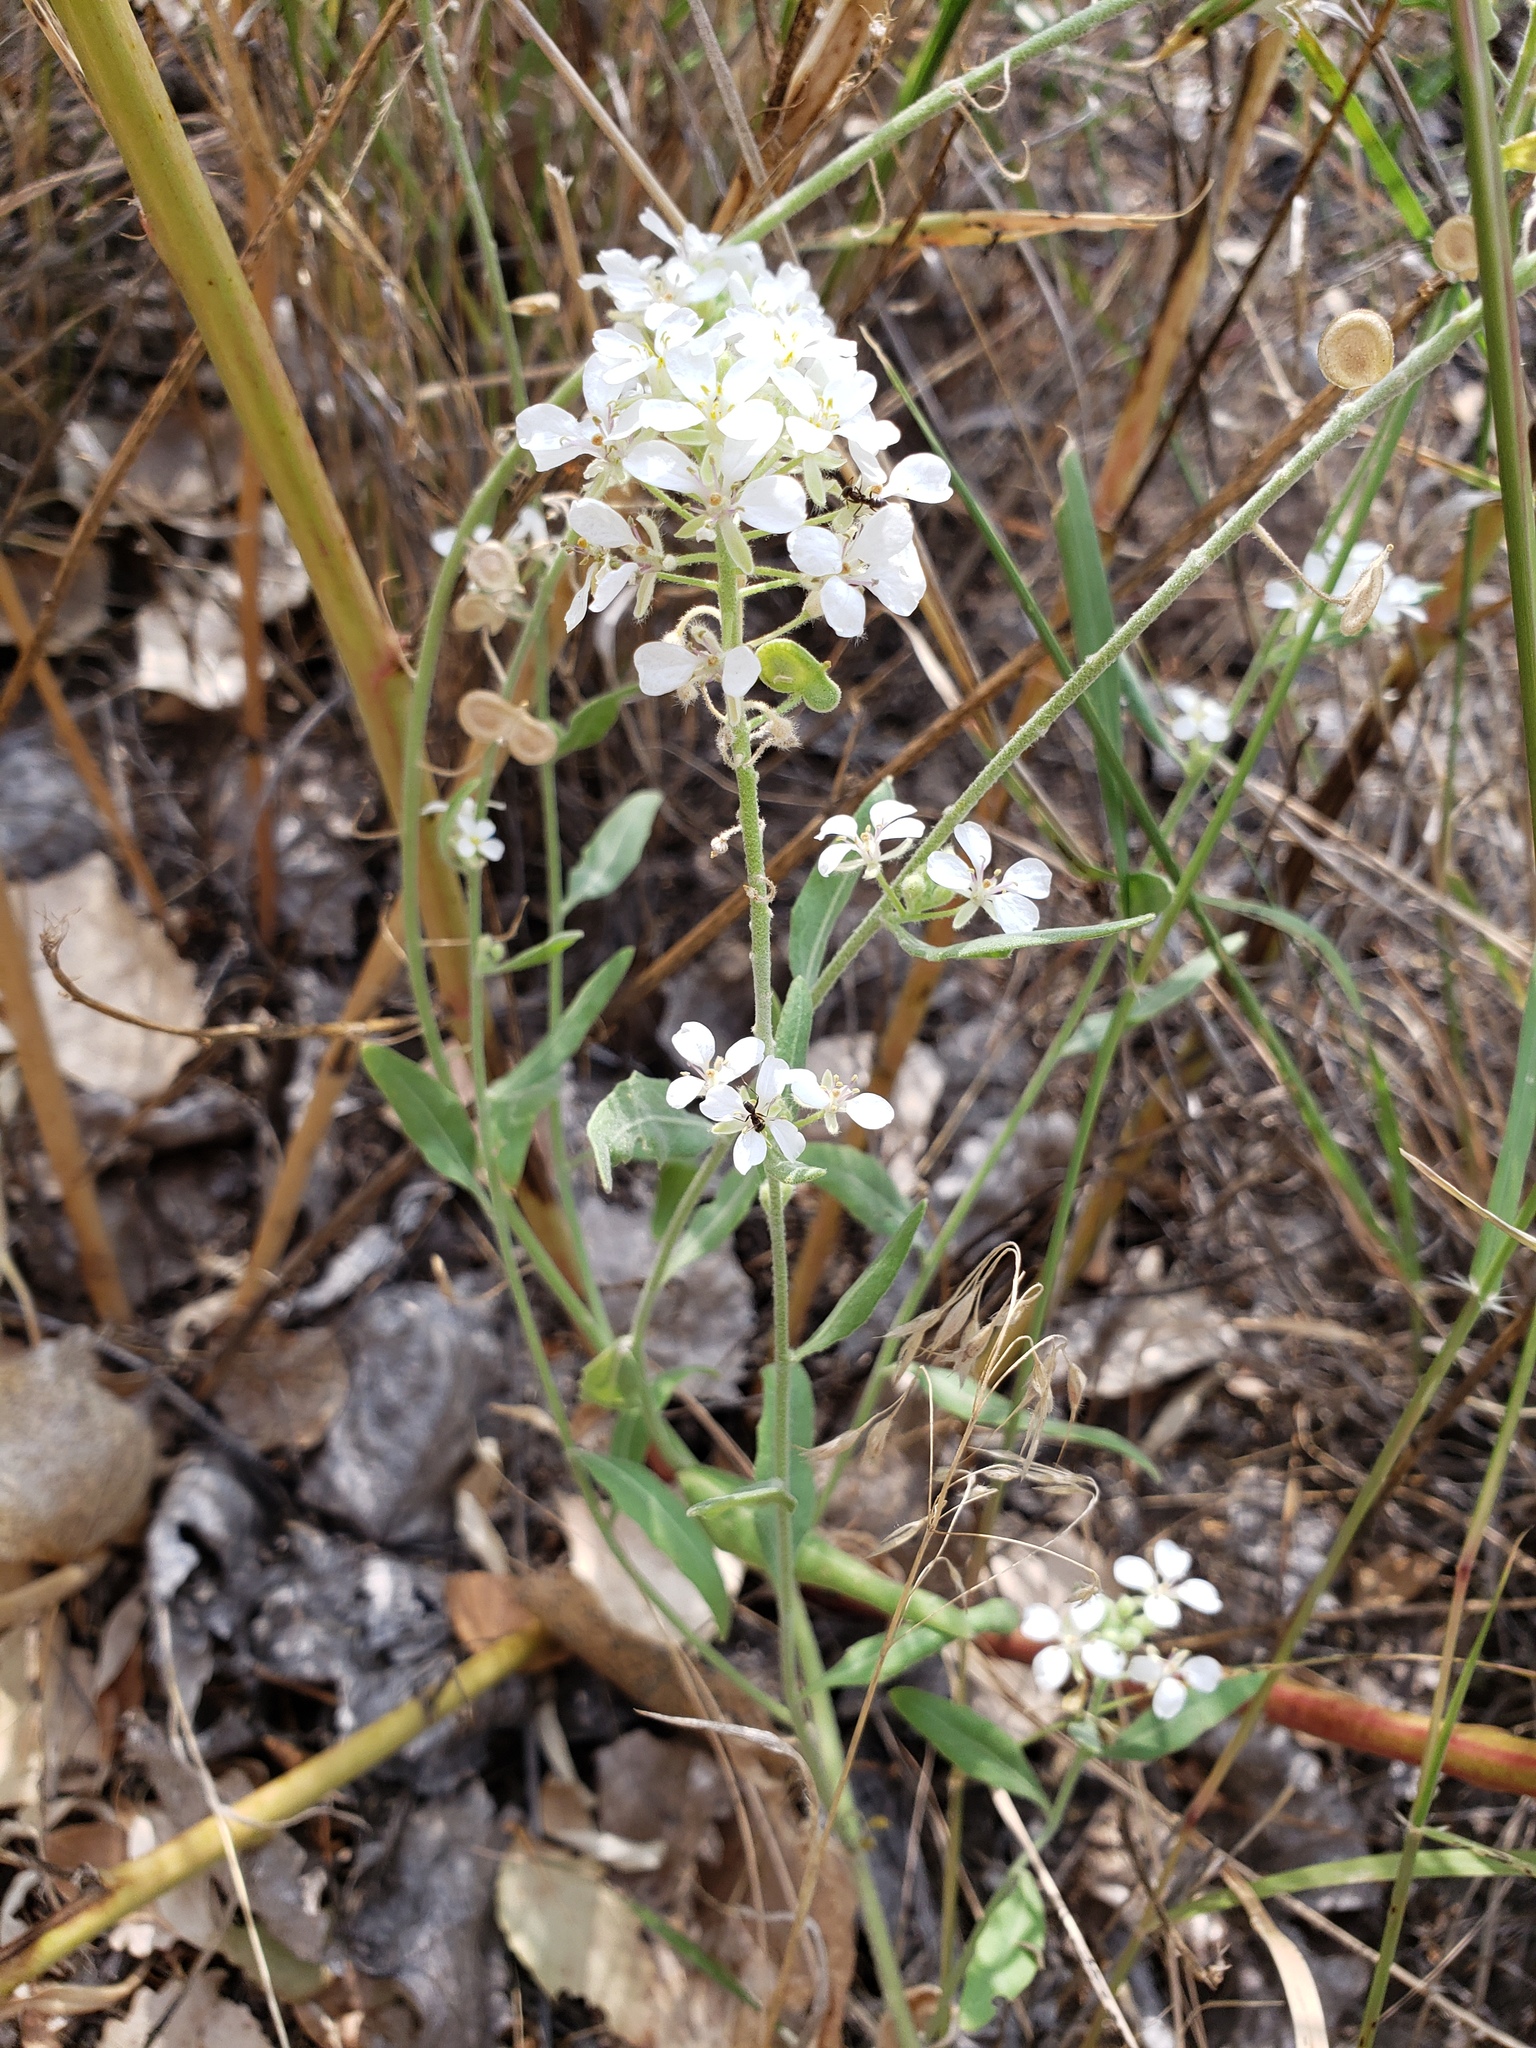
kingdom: Plantae
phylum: Tracheophyta
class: Magnoliopsida
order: Brassicales
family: Brassicaceae
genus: Dimorphocarpa
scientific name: Dimorphocarpa wislizenii
